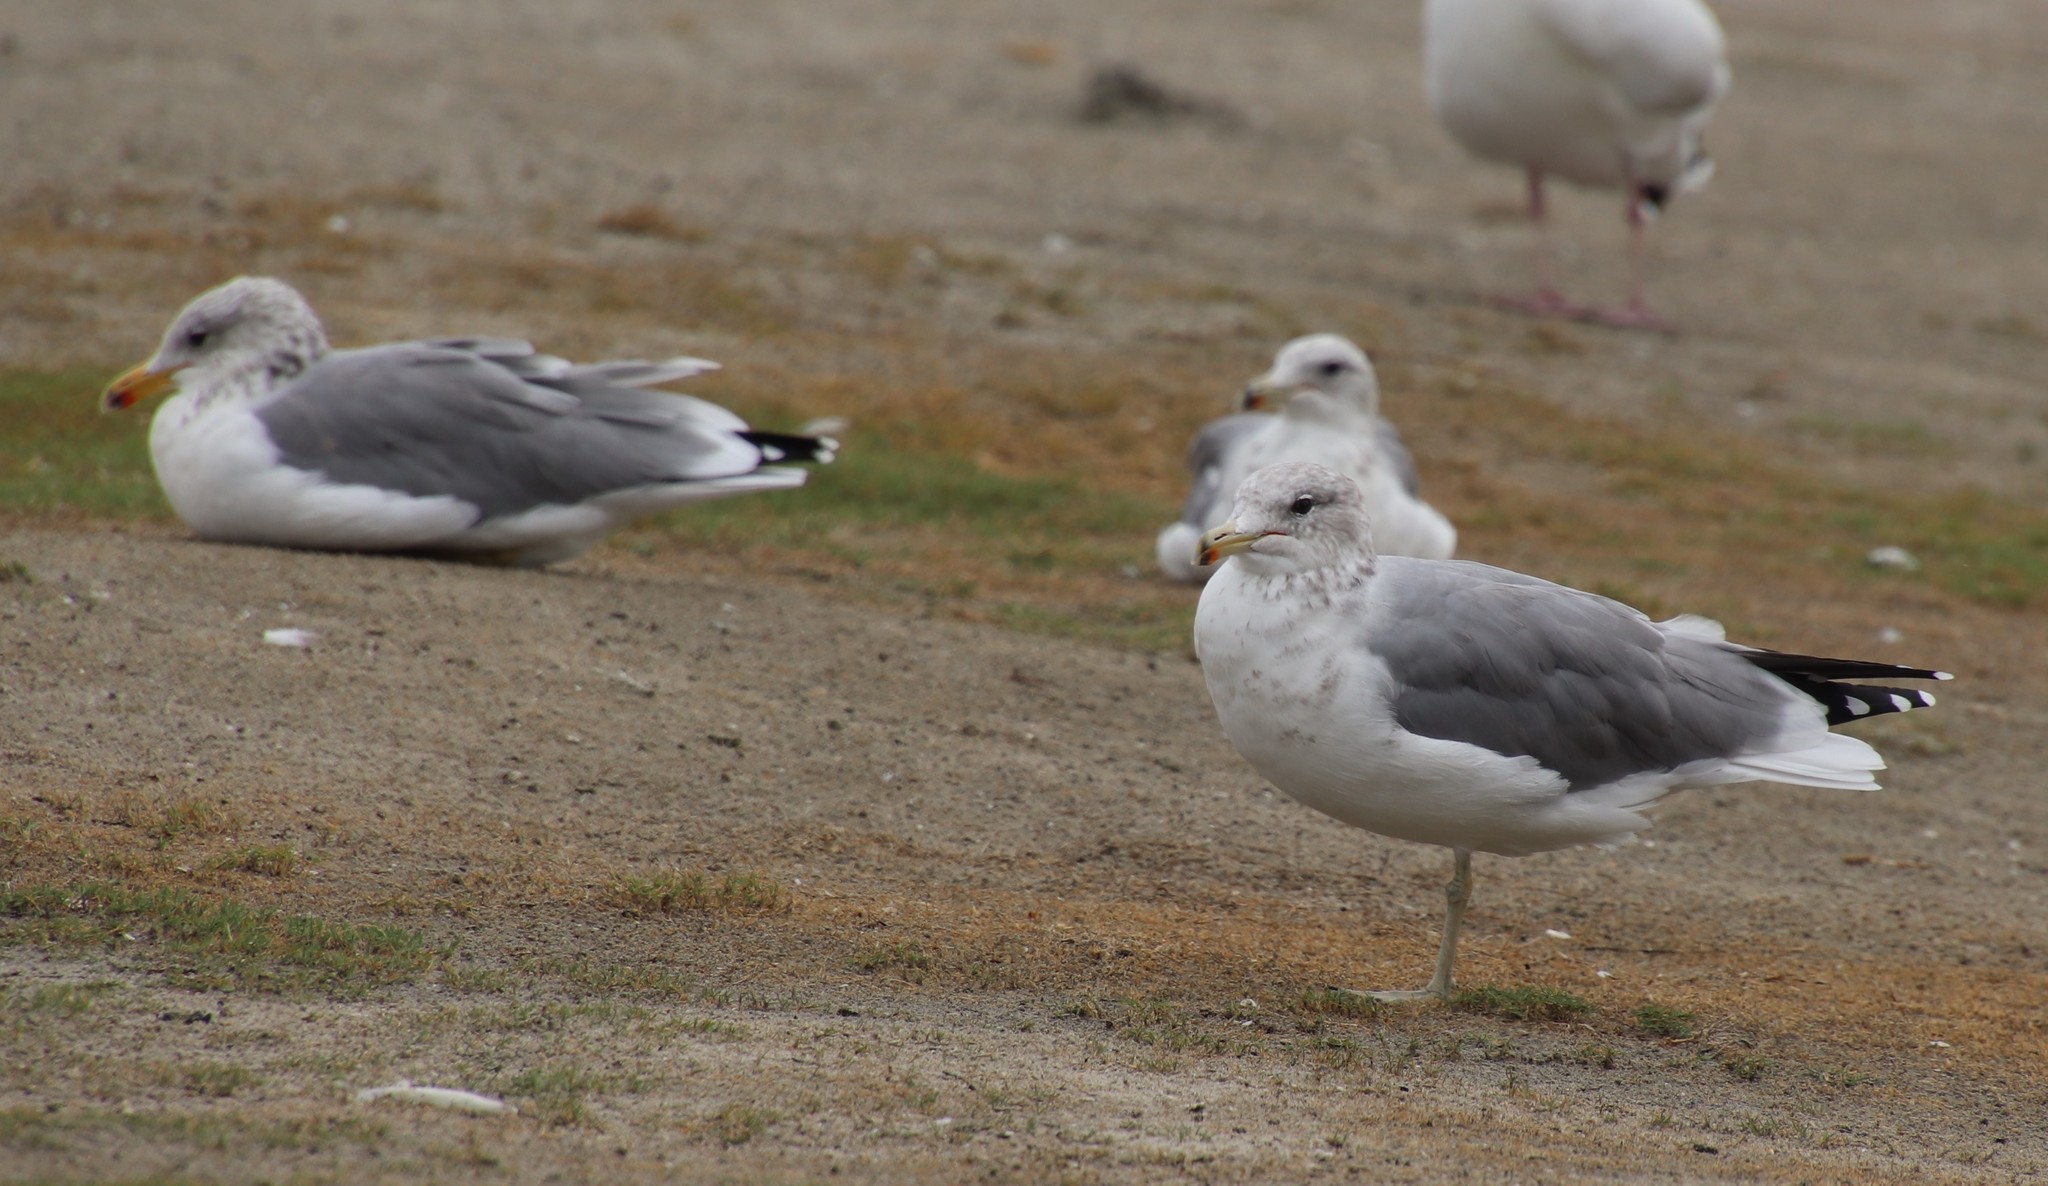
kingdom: Animalia
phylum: Chordata
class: Aves
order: Charadriiformes
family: Laridae
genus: Larus
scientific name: Larus californicus
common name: California gull
